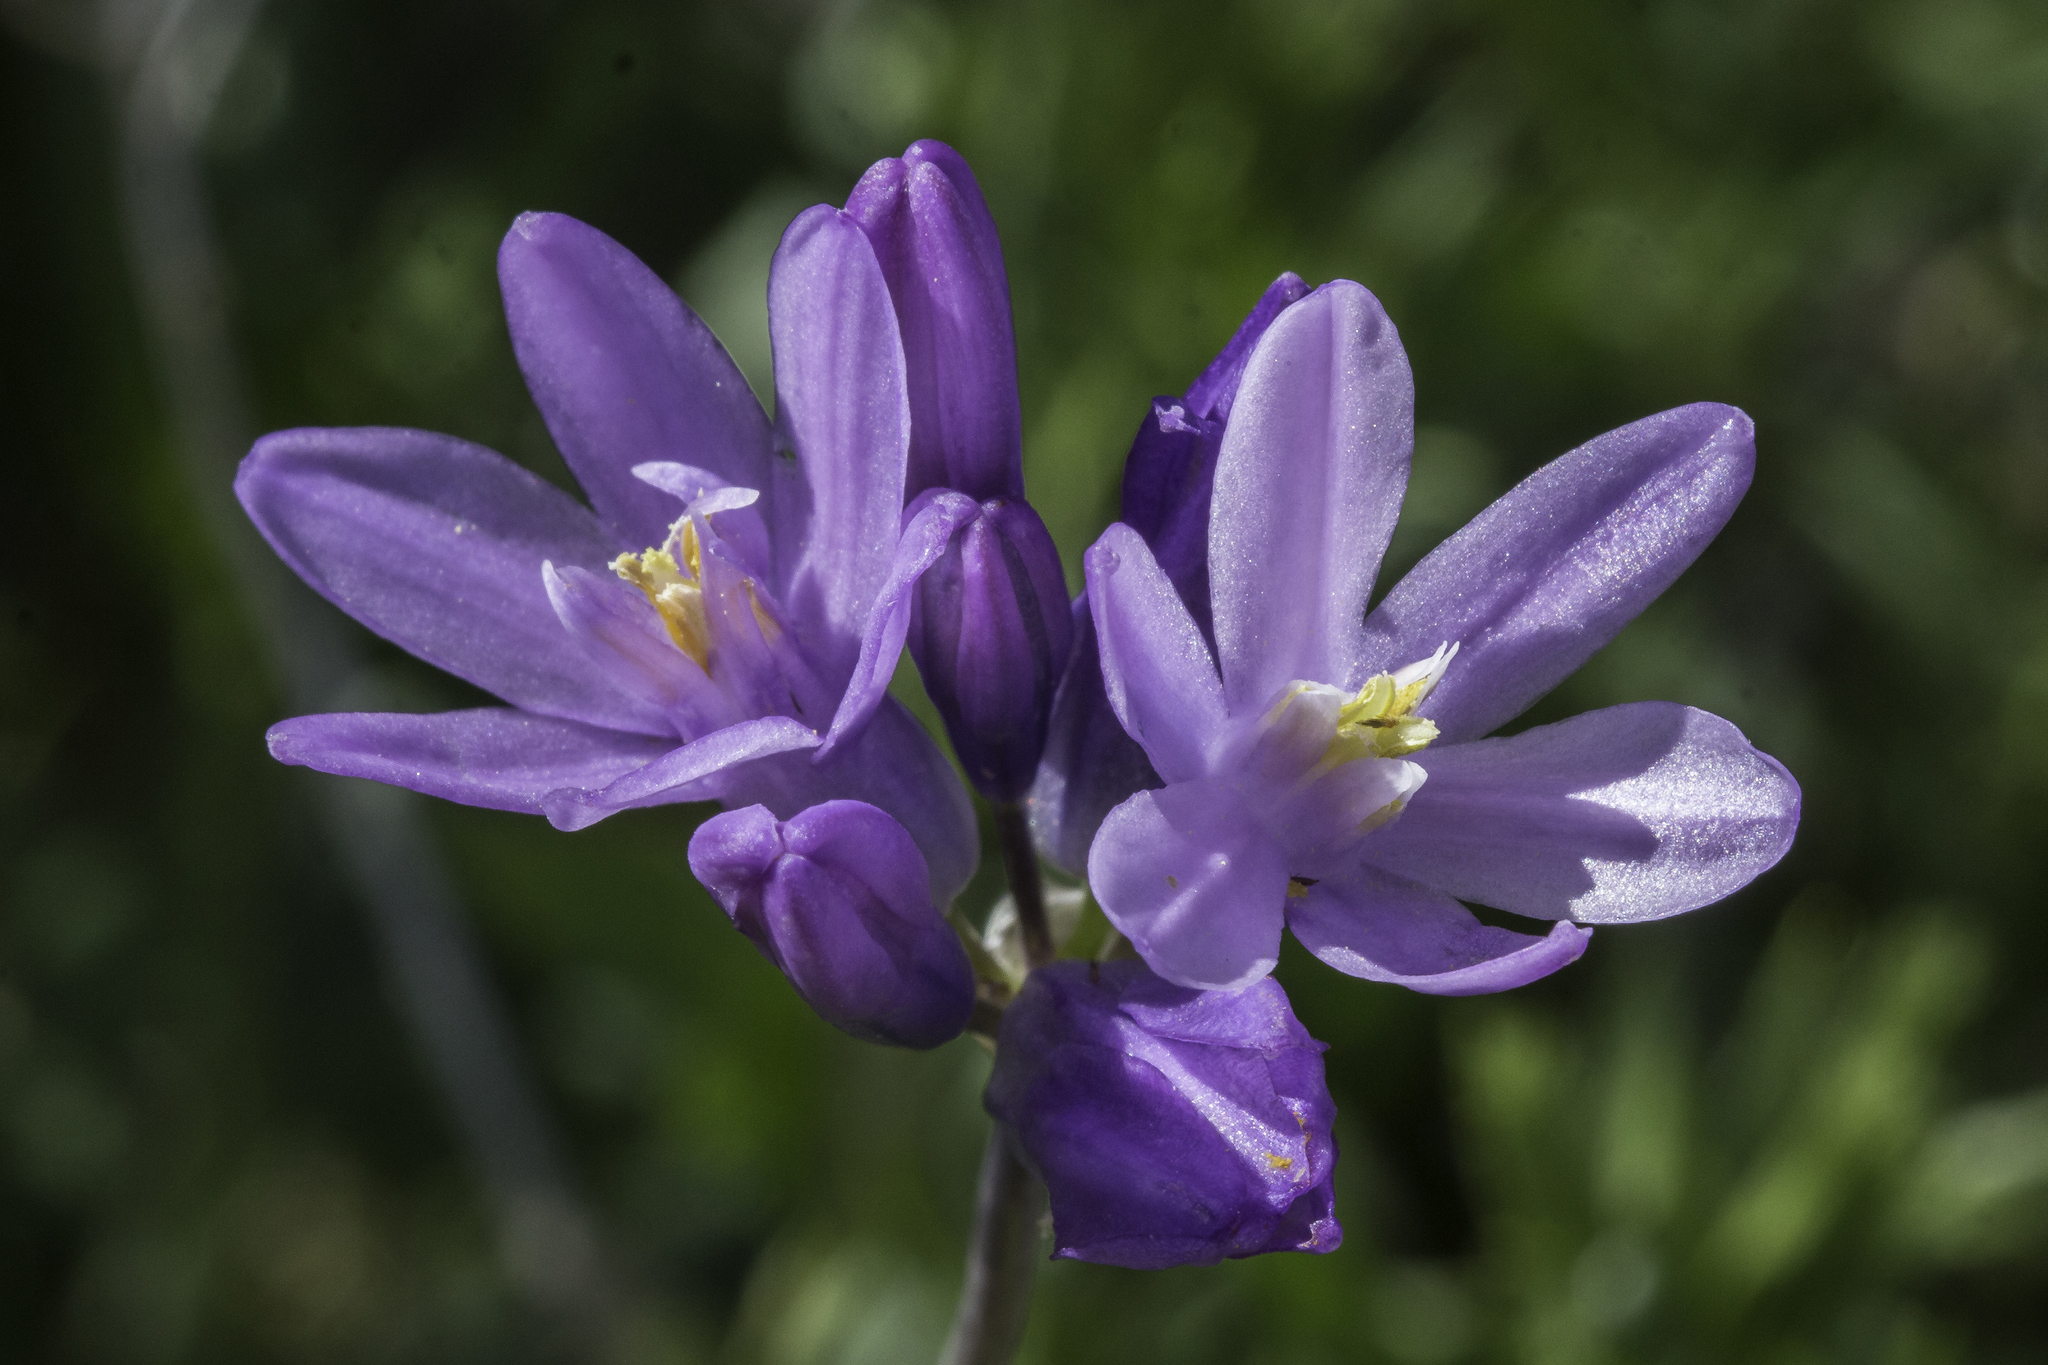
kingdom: Plantae
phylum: Tracheophyta
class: Liliopsida
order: Asparagales
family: Asparagaceae
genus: Dipterostemon
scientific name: Dipterostemon capitatus
